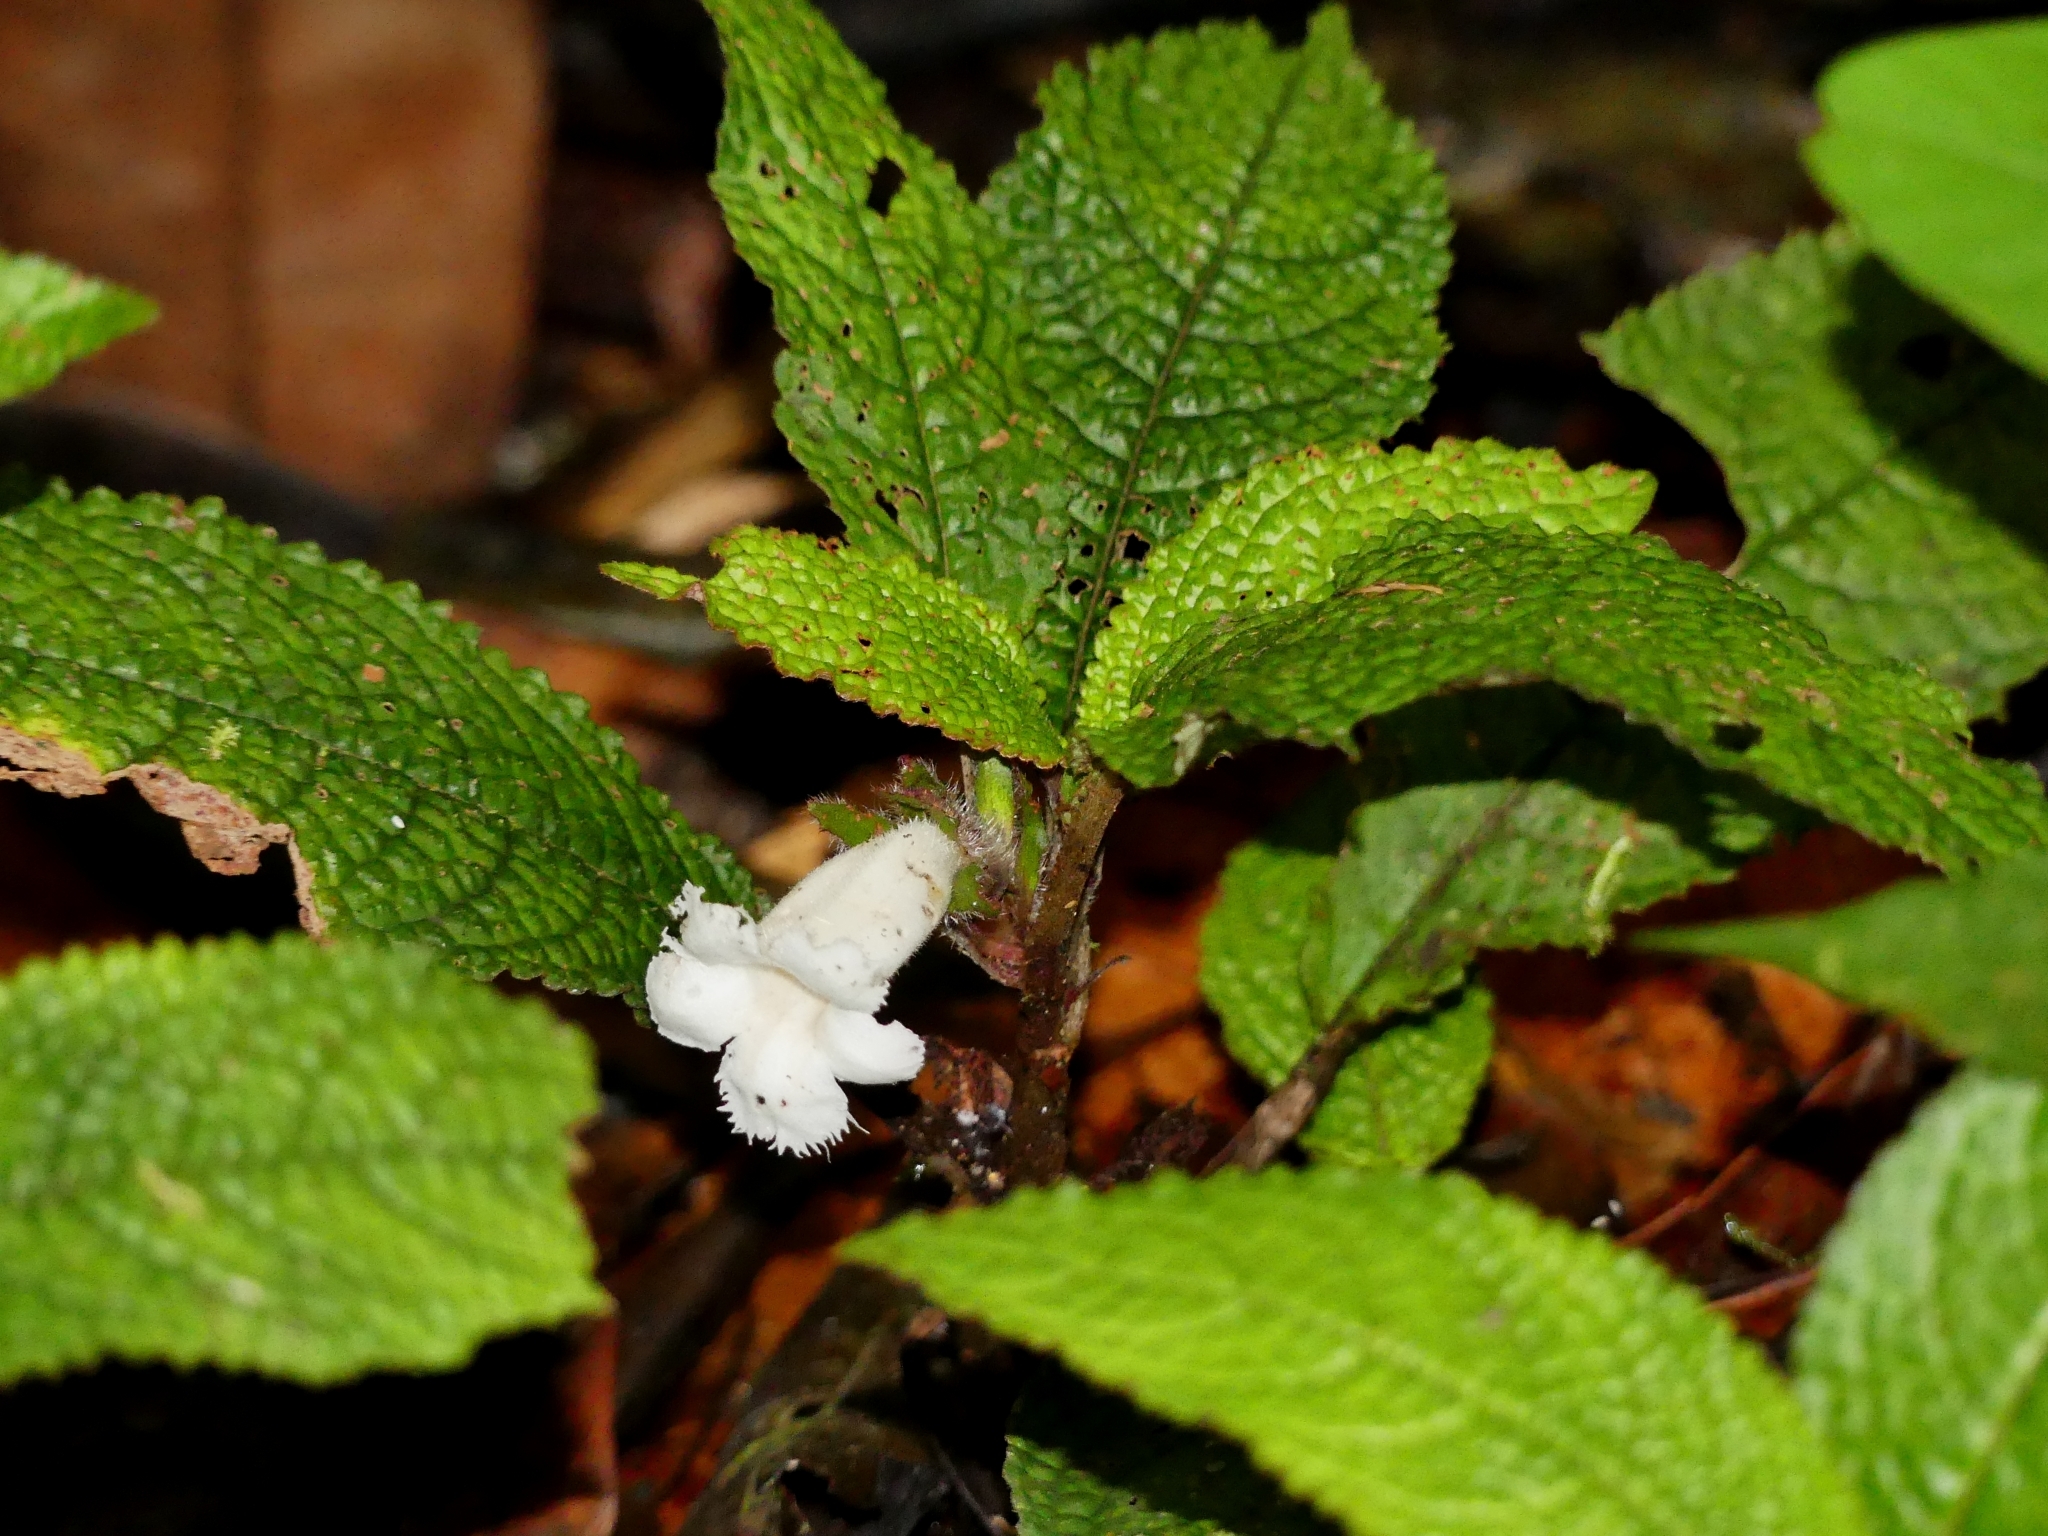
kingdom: Plantae
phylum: Tracheophyta
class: Magnoliopsida
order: Lamiales
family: Gesneriaceae
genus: Centrosolenia
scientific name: Centrosolenia picta
